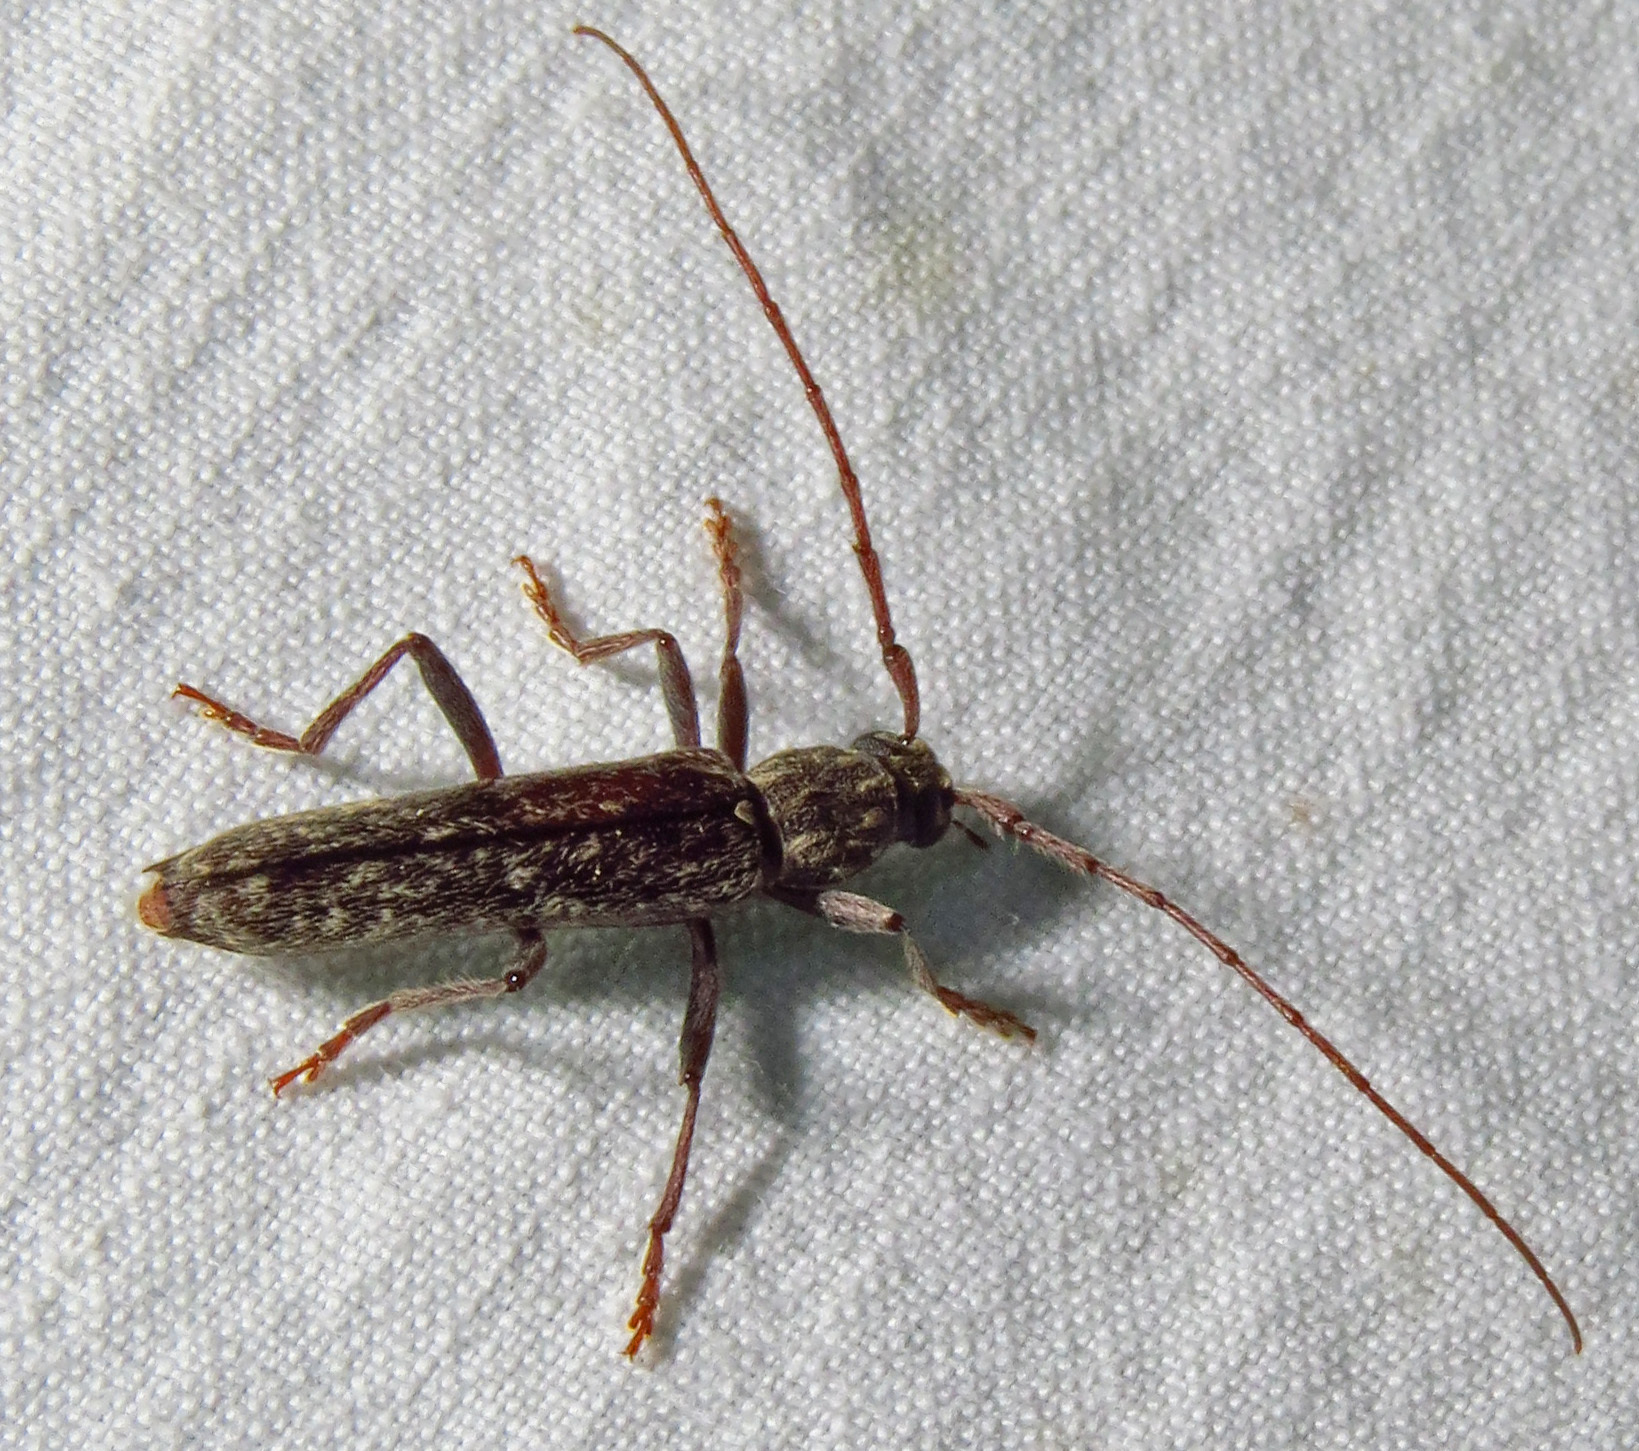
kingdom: Animalia
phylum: Arthropoda
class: Insecta
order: Coleoptera
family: Cerambycidae
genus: Anelaphus
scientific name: Anelaphus villosus
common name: Twig pruner
